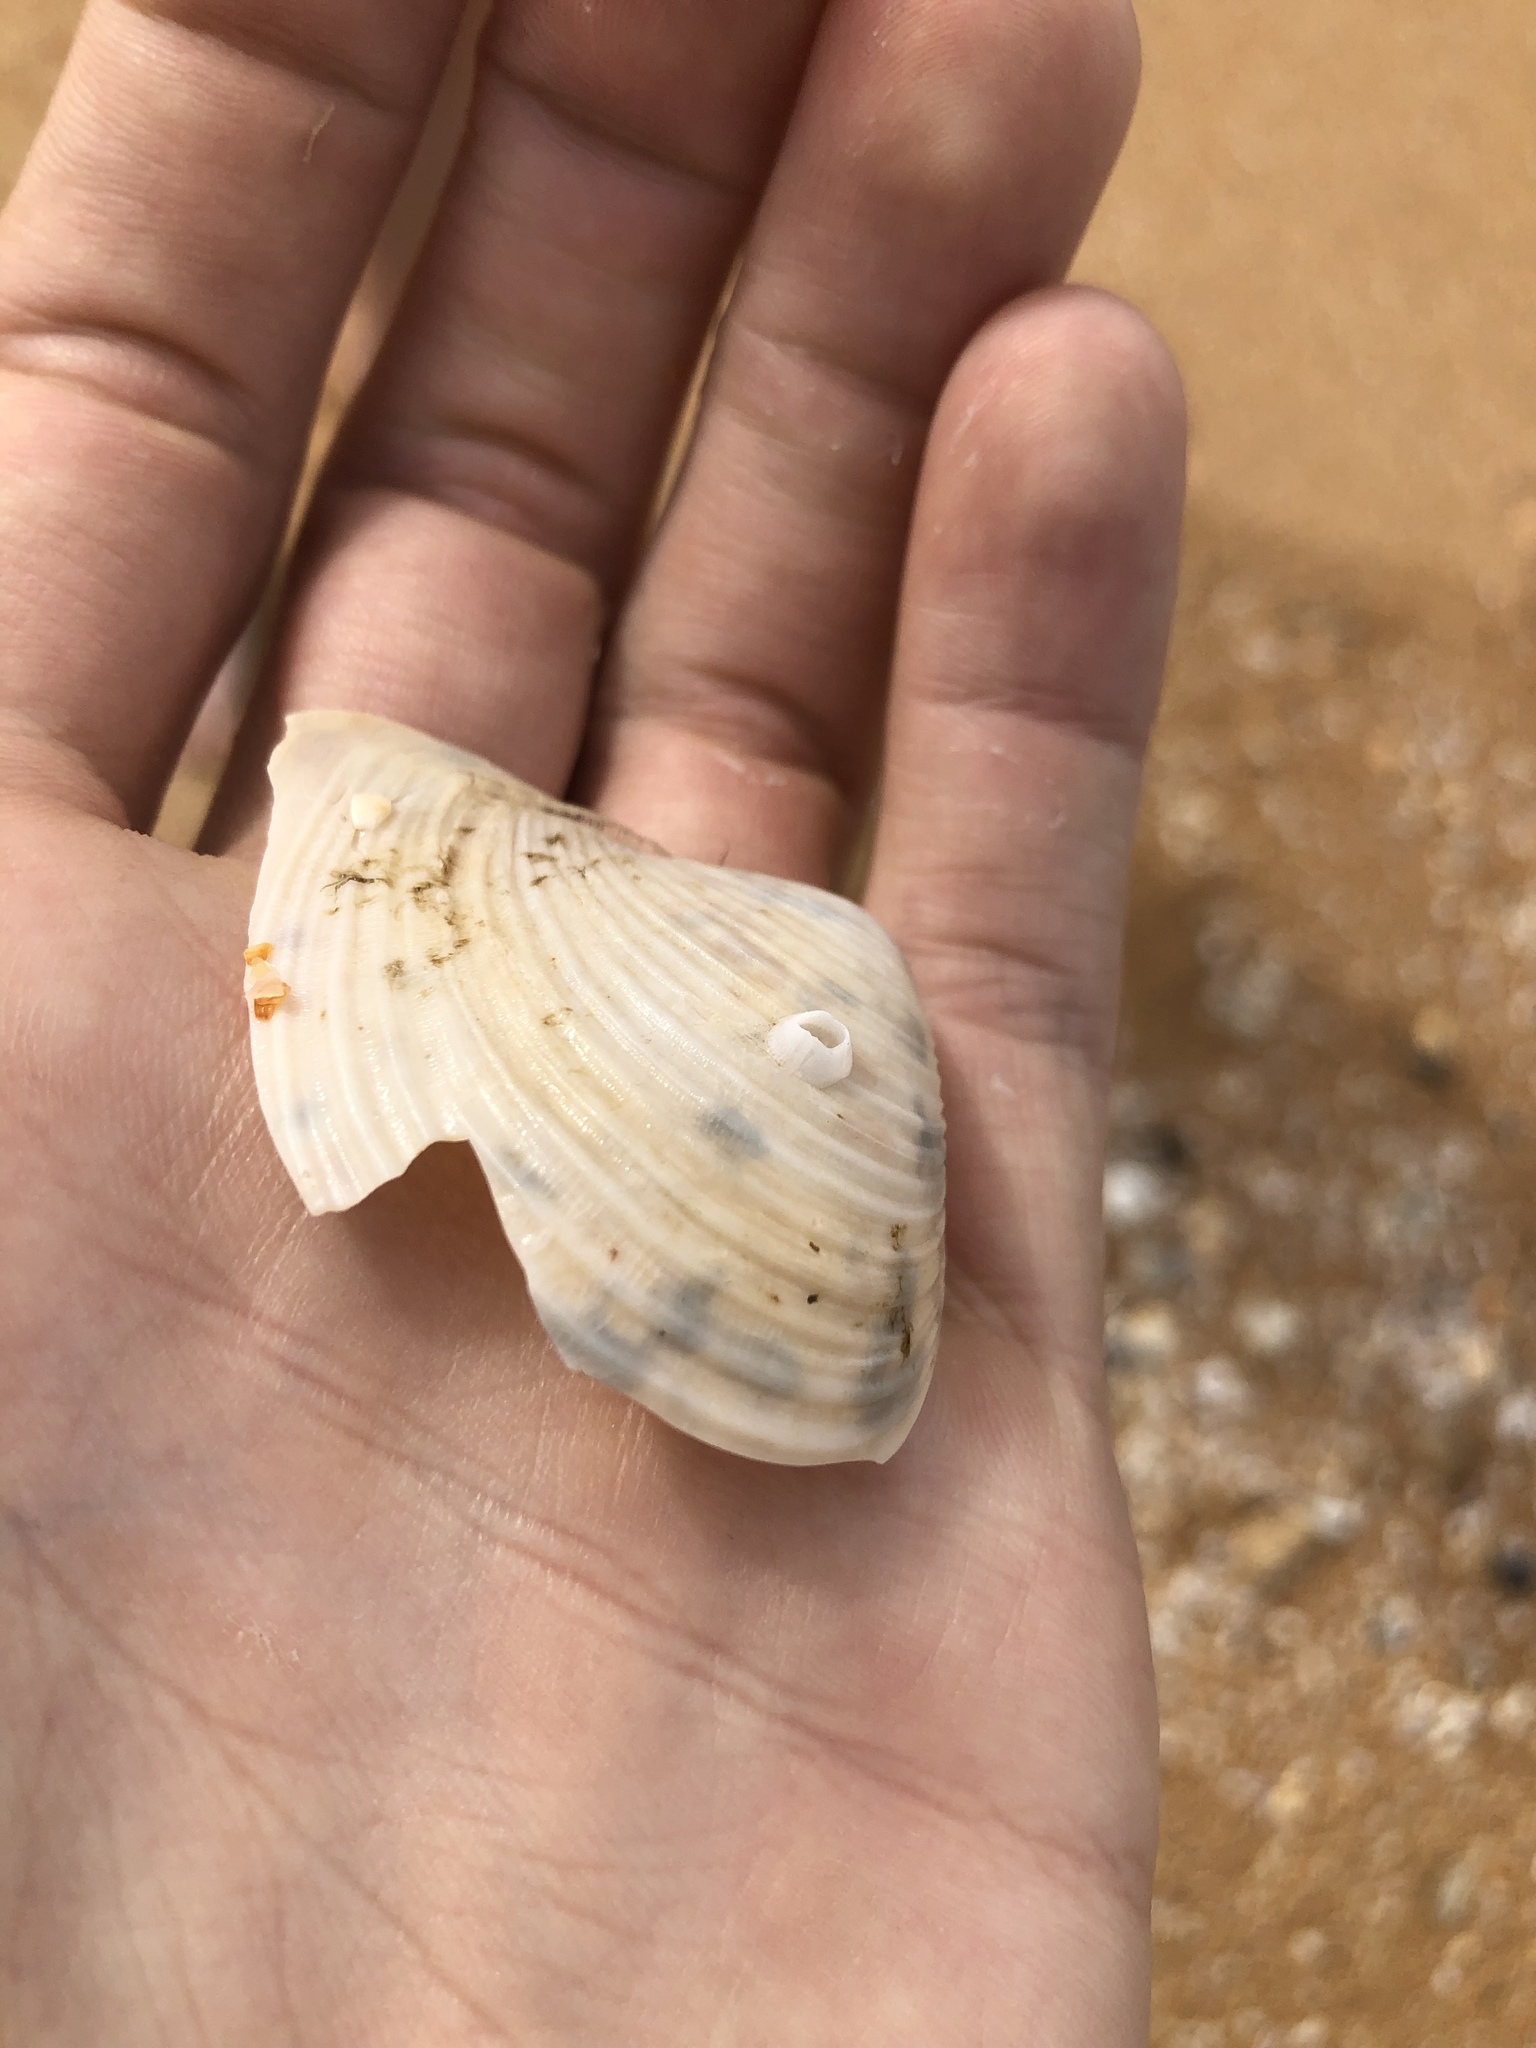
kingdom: Animalia
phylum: Arthropoda
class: Maxillopoda
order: Sessilia
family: Balanidae
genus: Amphibalanus
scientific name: Amphibalanus venustus
